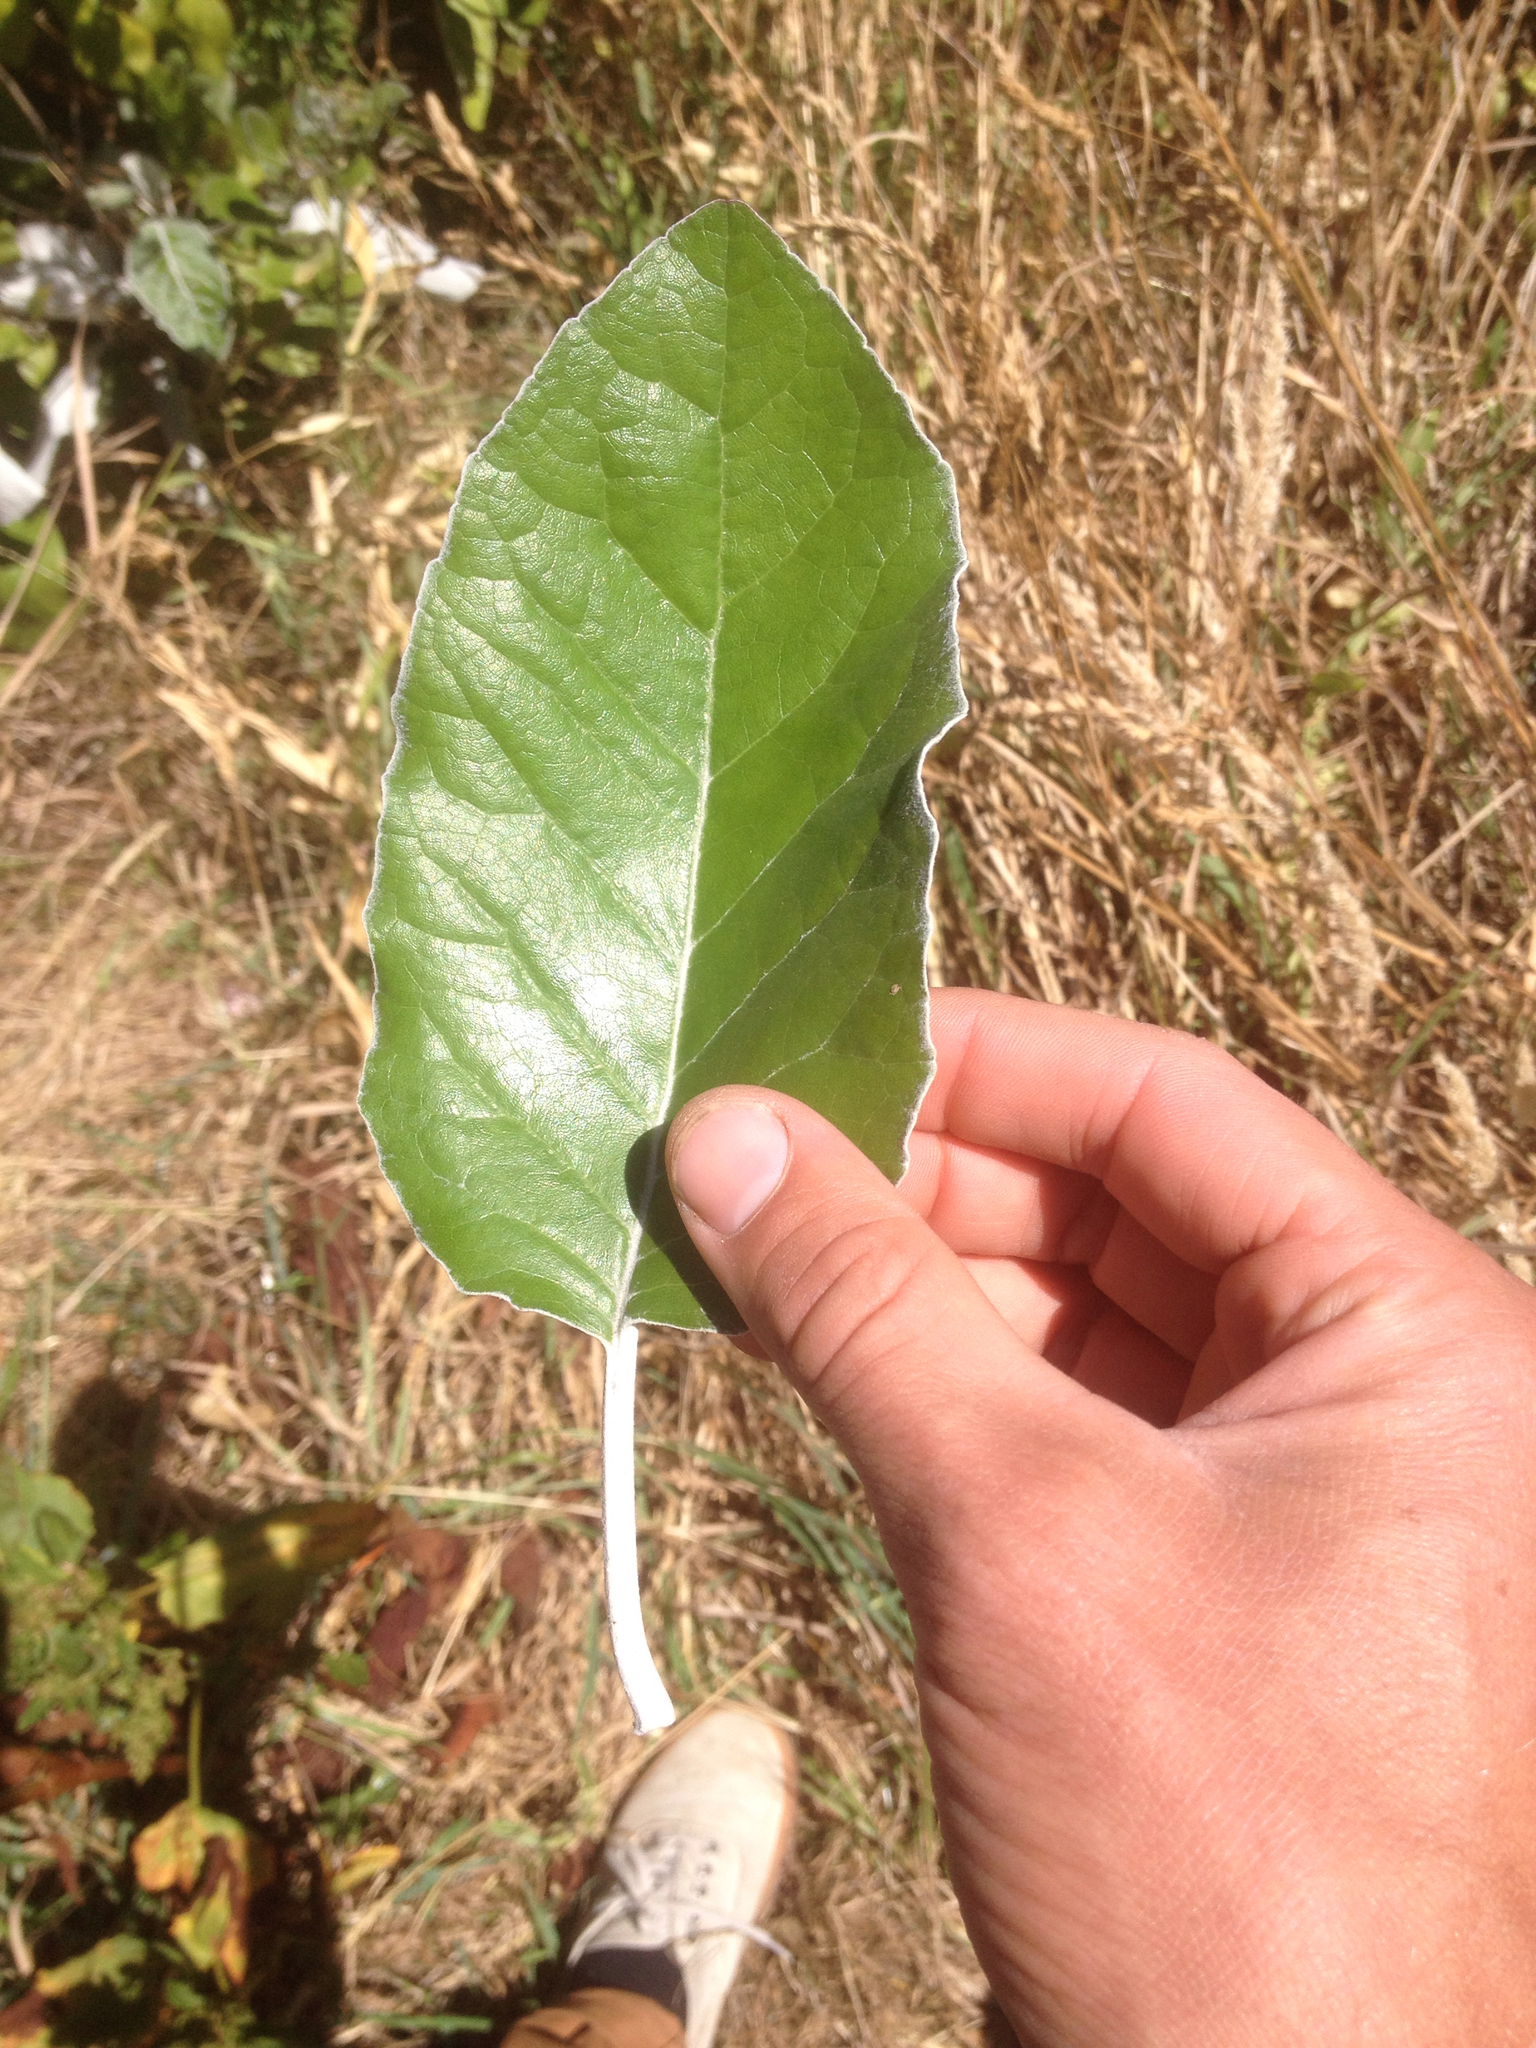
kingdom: Plantae
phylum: Tracheophyta
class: Magnoliopsida
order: Asterales
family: Asteraceae
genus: Brachyglottis
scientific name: Brachyglottis repanda
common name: Hedge ragwort
